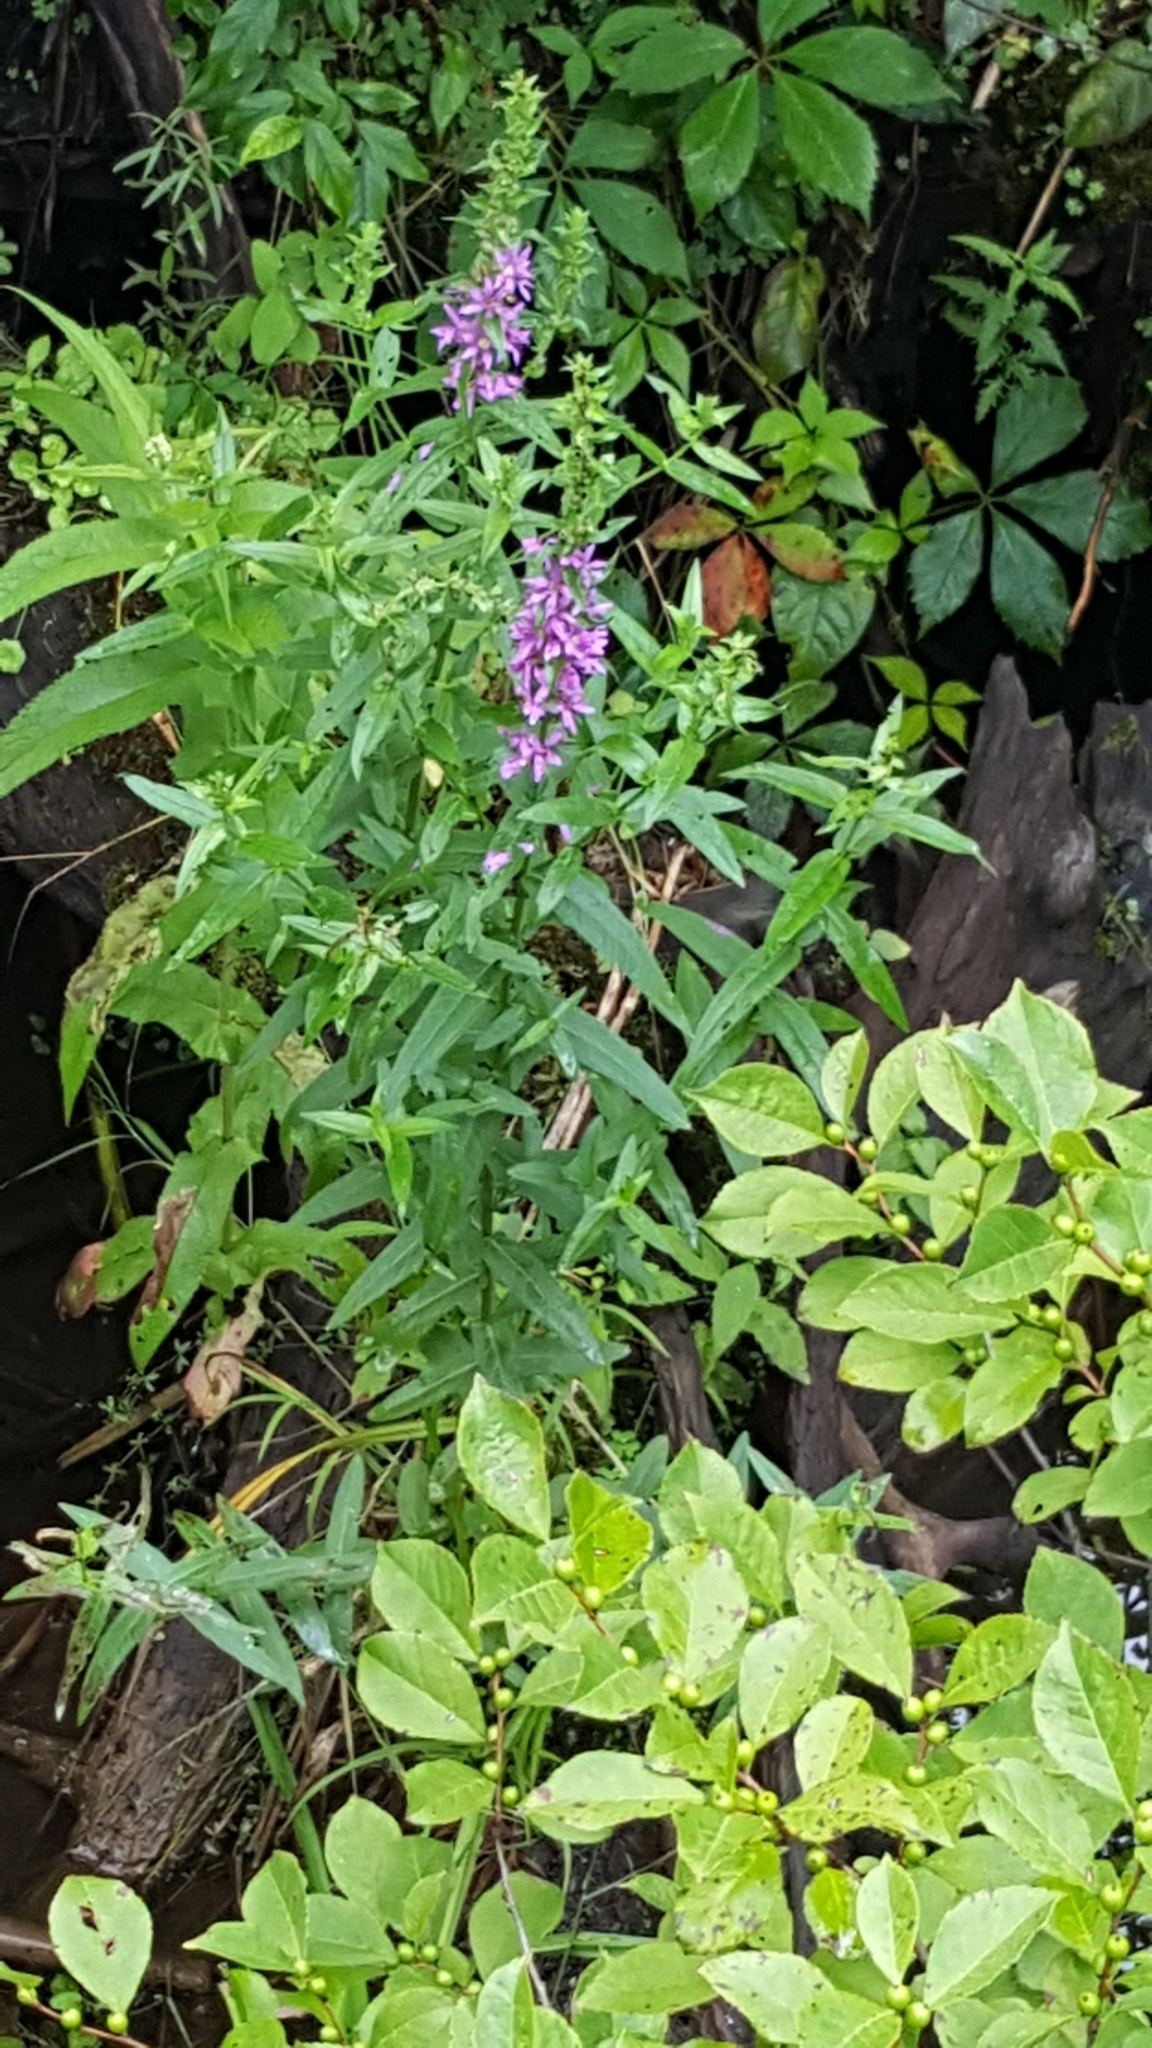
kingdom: Plantae
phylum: Tracheophyta
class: Magnoliopsida
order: Myrtales
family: Lythraceae
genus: Lythrum
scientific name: Lythrum salicaria
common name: Purple loosestrife
